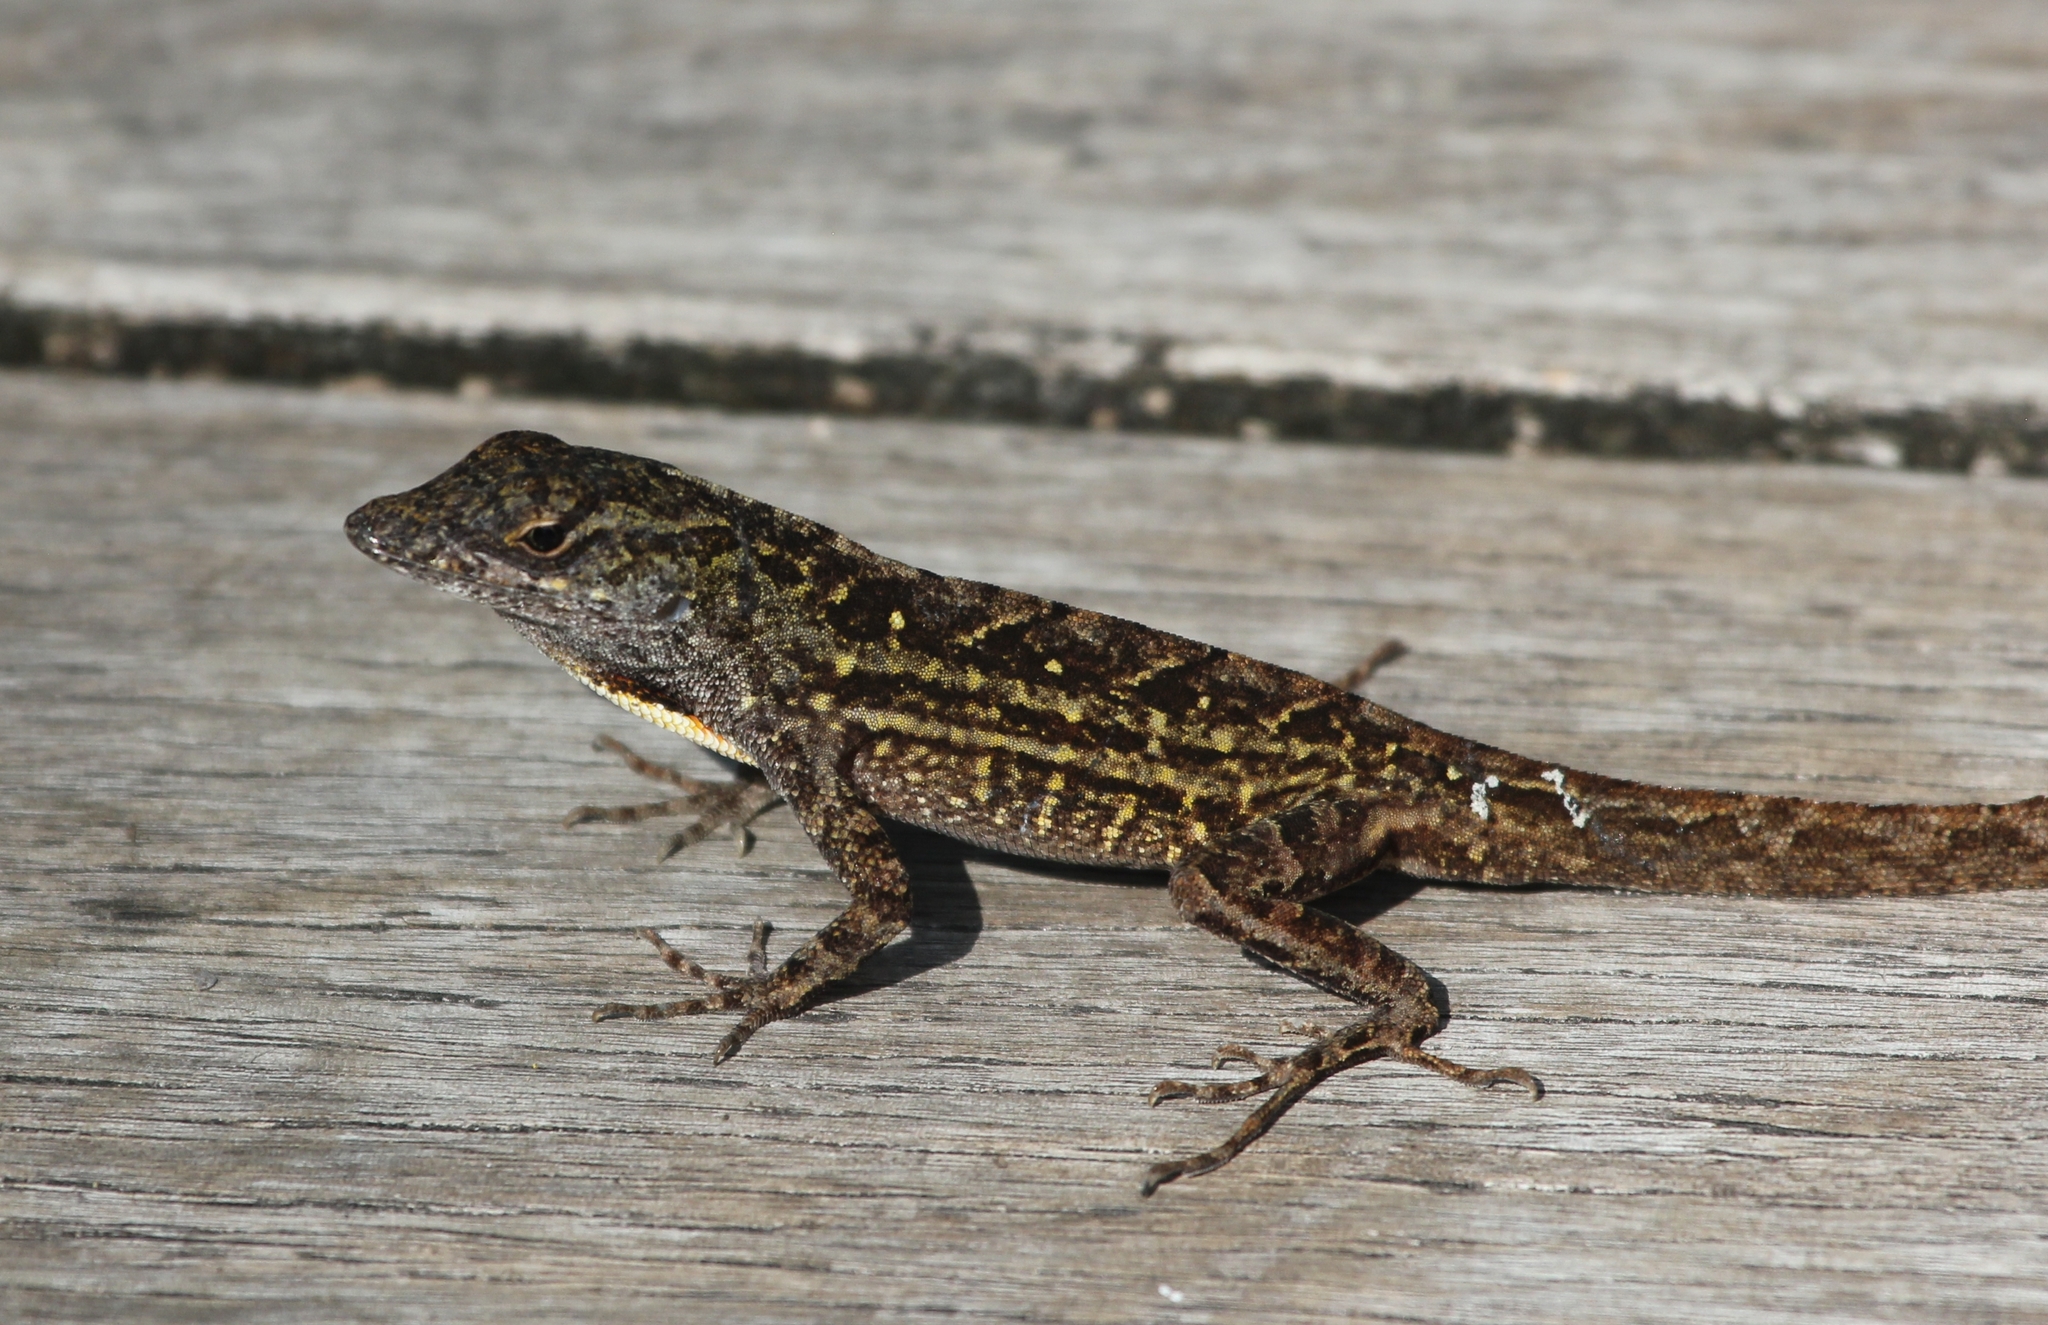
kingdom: Animalia
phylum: Chordata
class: Squamata
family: Dactyloidae
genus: Anolis
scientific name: Anolis sagrei
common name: Brown anole
